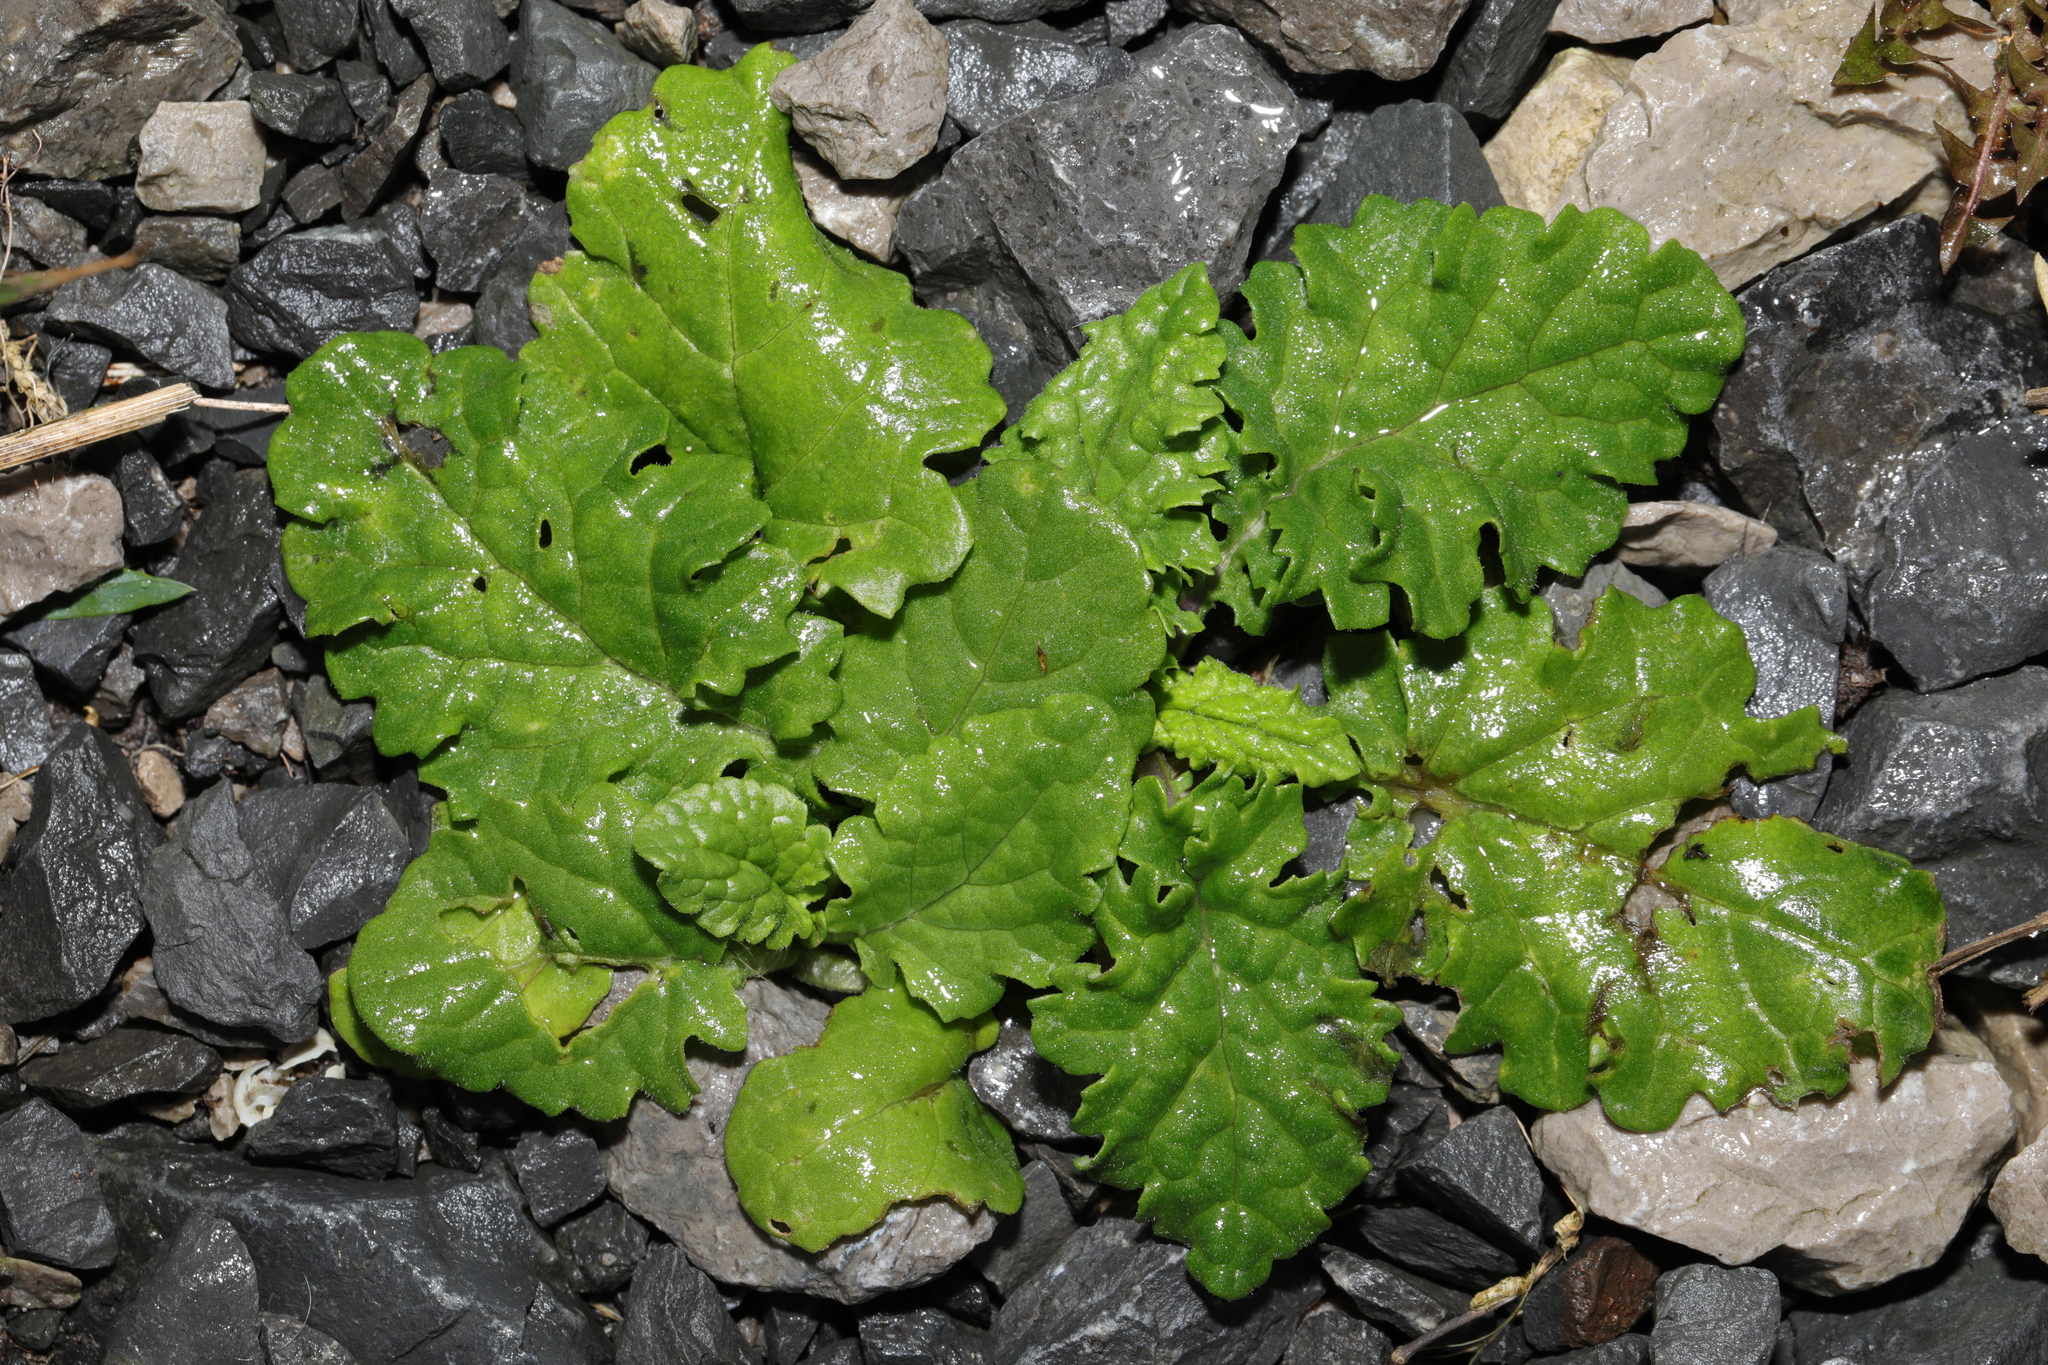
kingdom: Plantae
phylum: Tracheophyta
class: Magnoliopsida
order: Asterales
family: Asteraceae
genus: Jacobaea
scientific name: Jacobaea vulgaris
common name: Stinking willie
